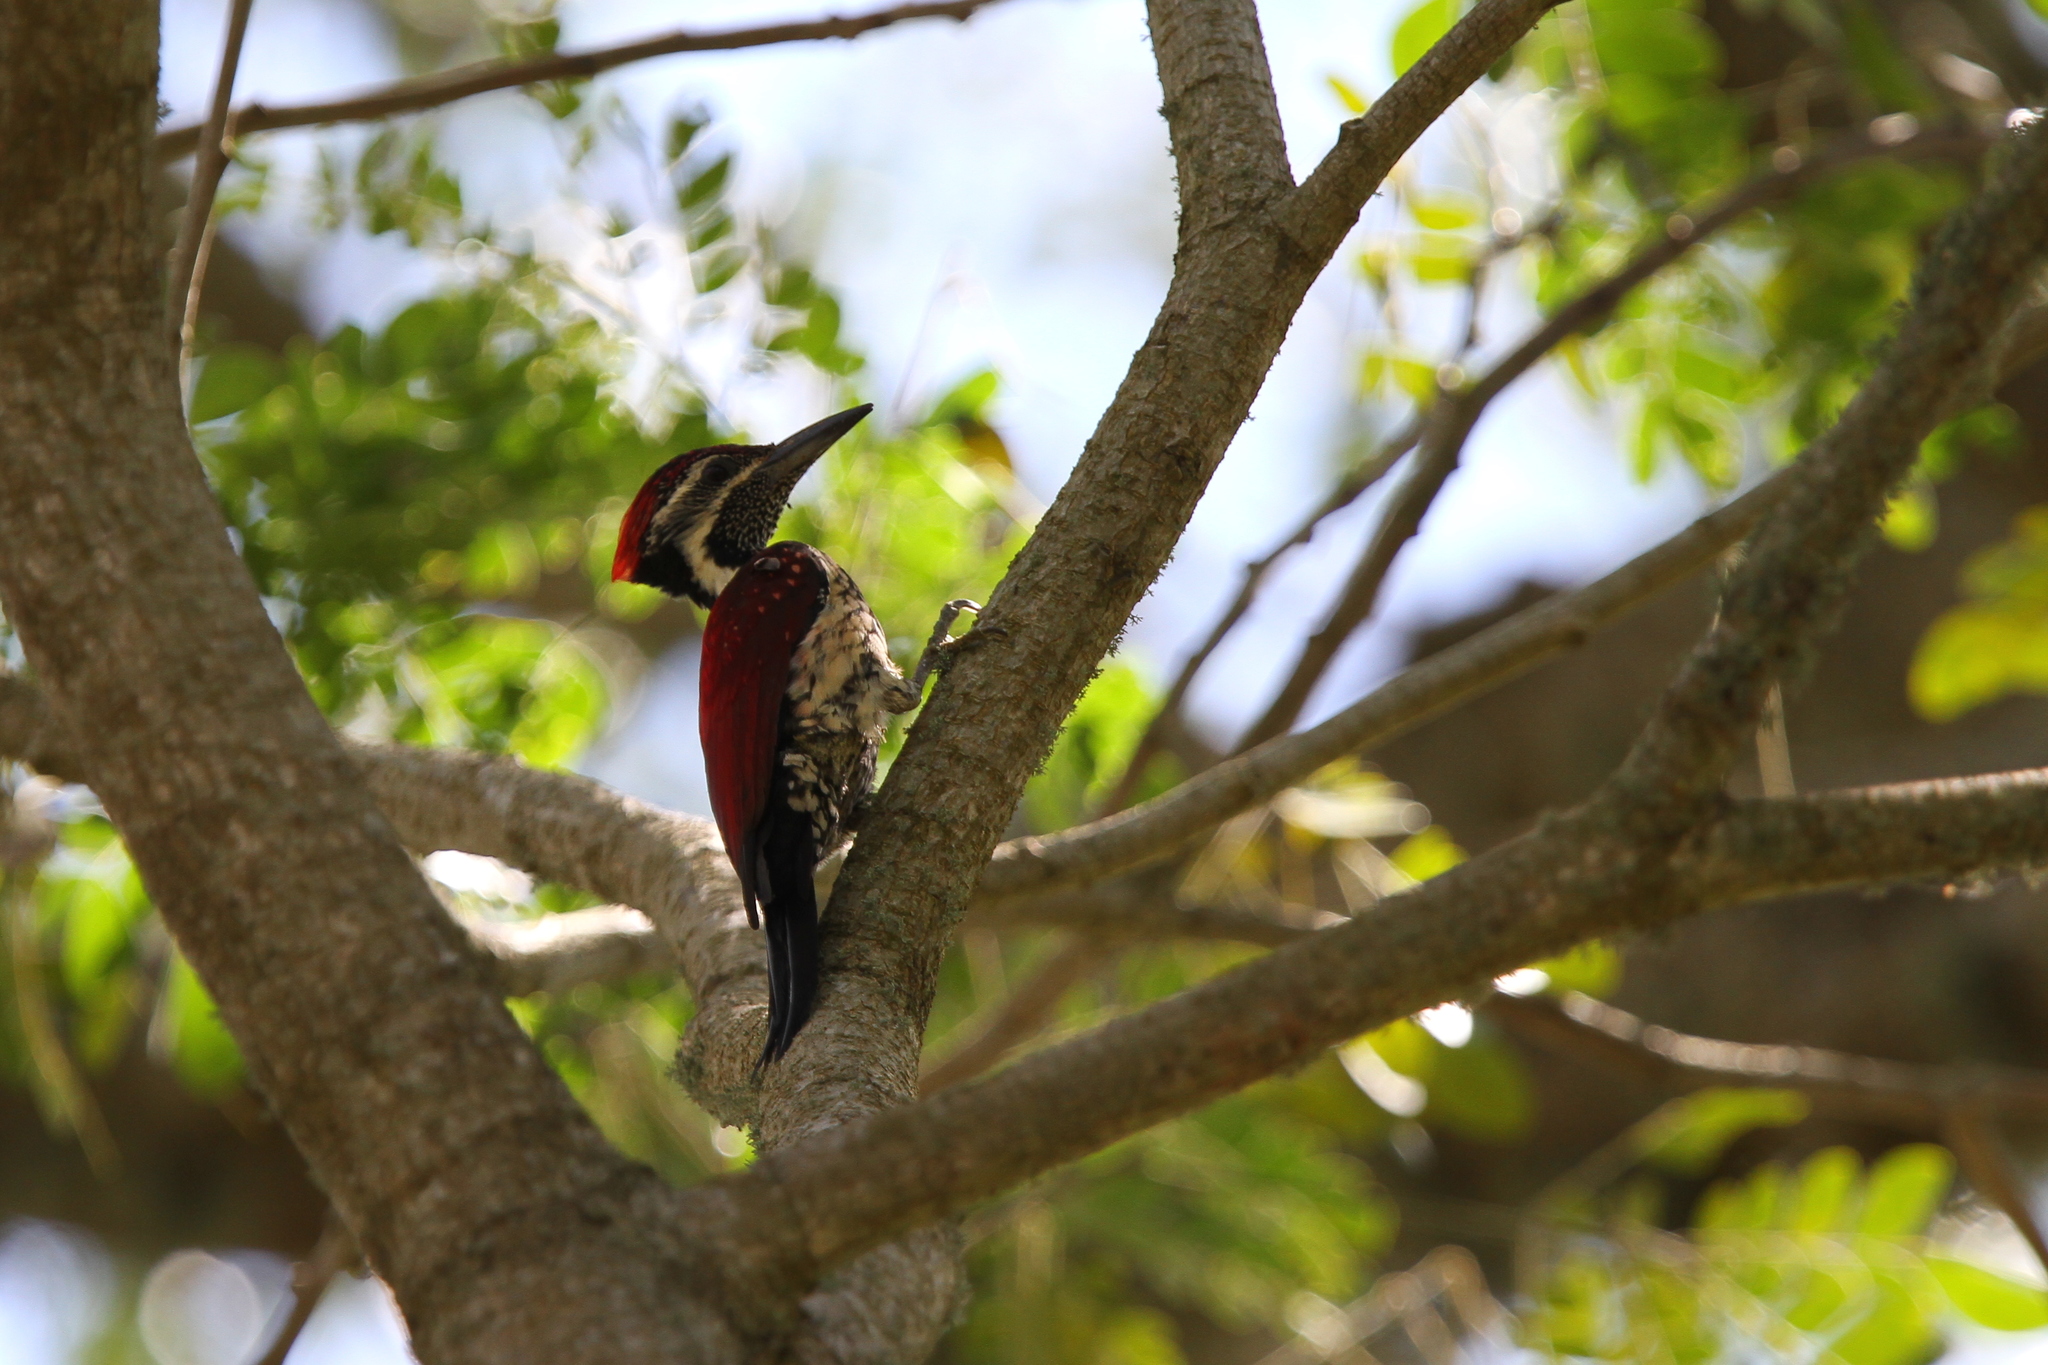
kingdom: Animalia
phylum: Chordata
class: Aves
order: Piciformes
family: Picidae
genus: Dinopium
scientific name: Dinopium psarodes
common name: Red-backed flameback
